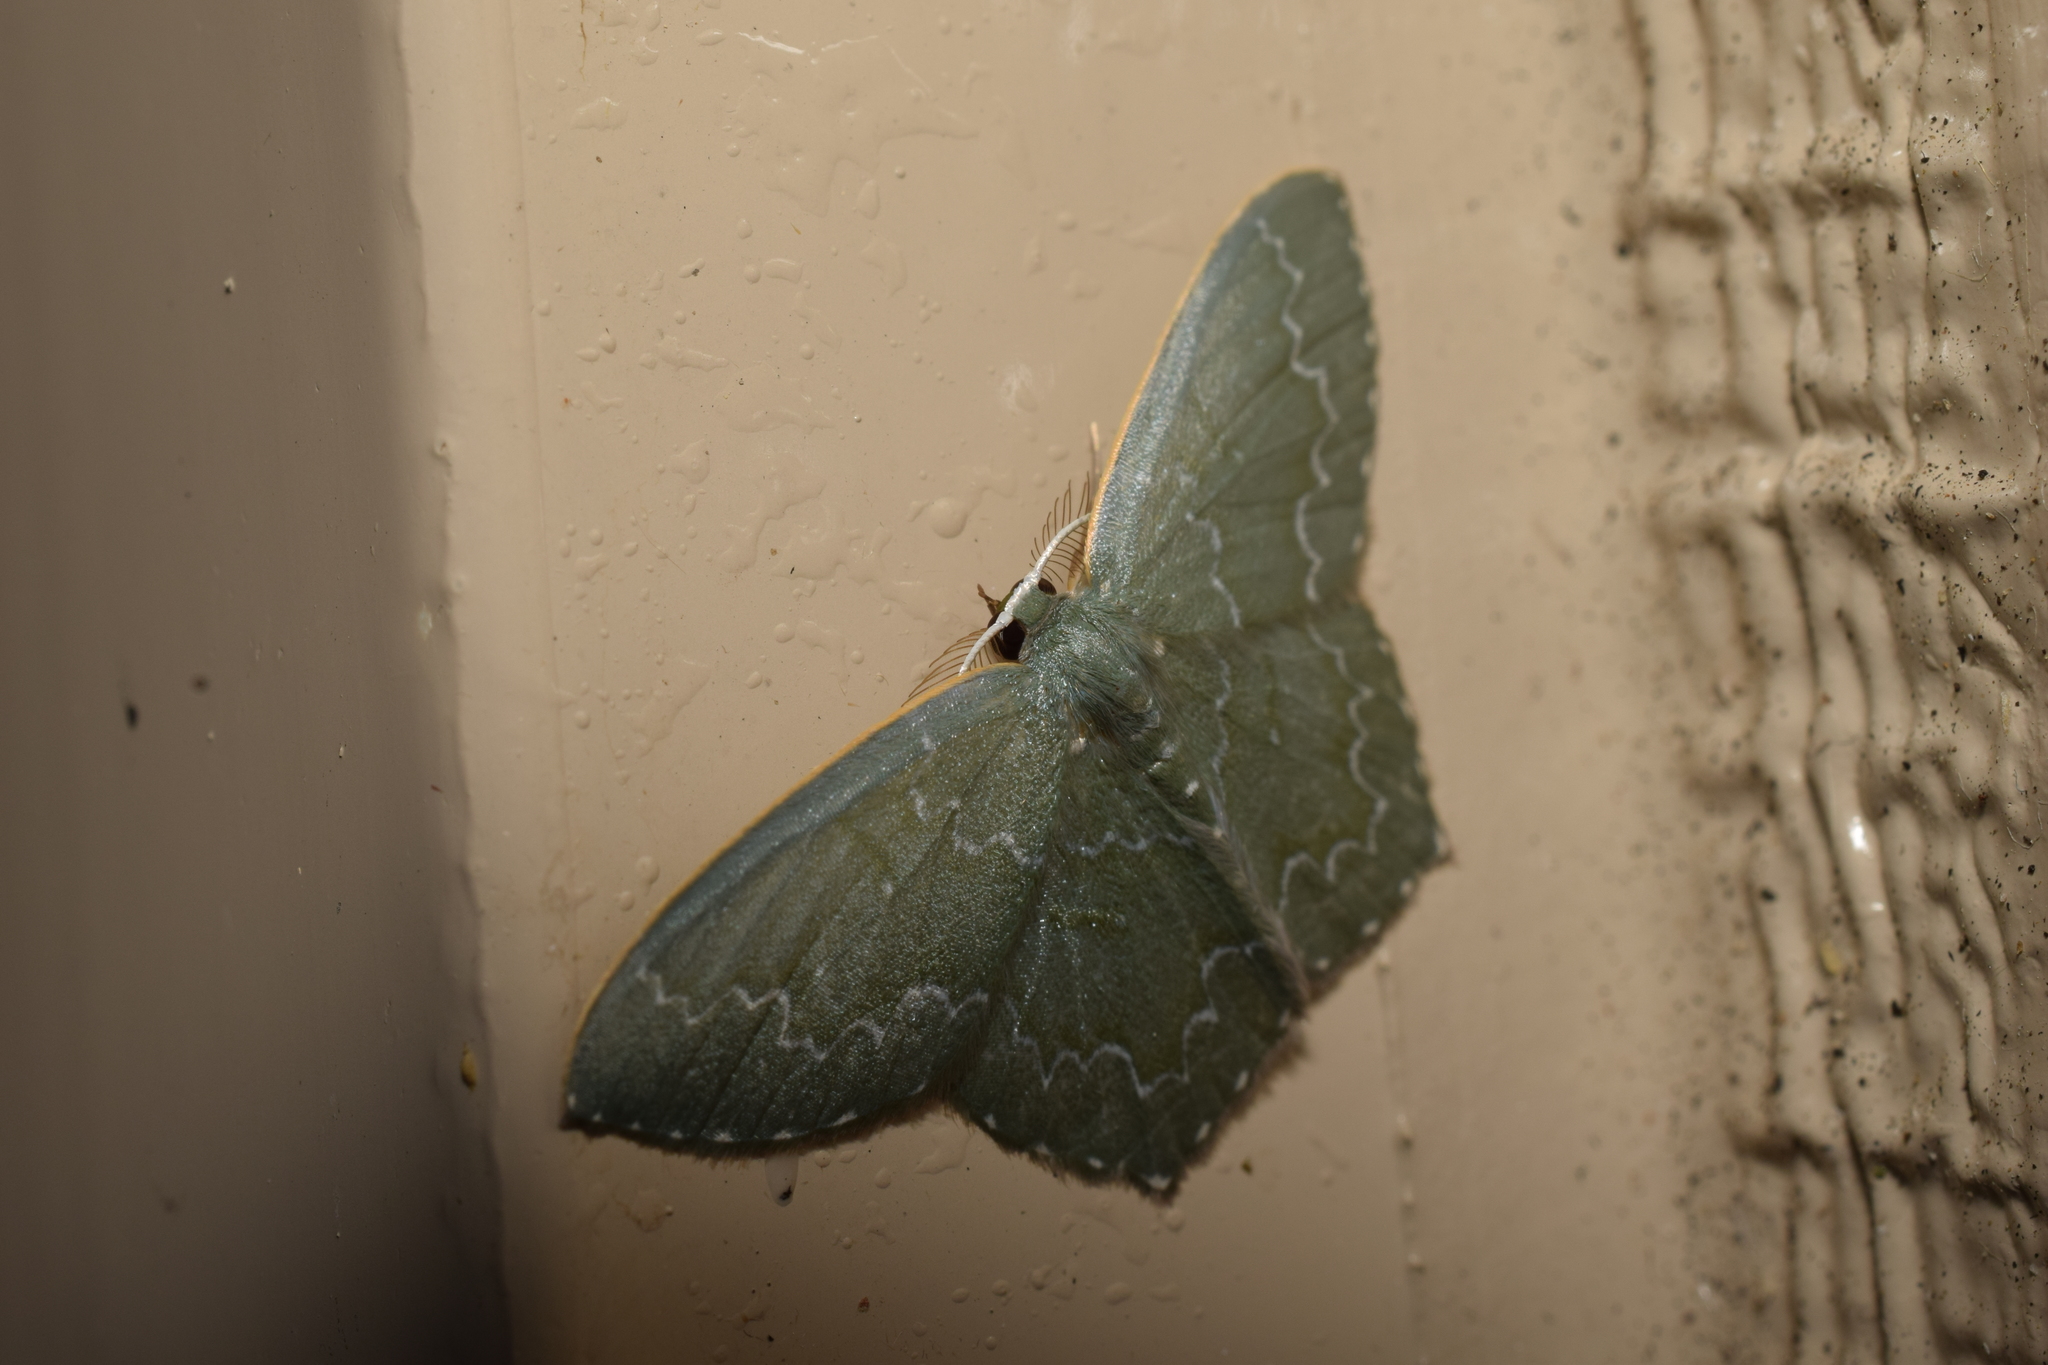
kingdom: Animalia
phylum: Arthropoda
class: Insecta
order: Lepidoptera
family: Geometridae
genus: Jodis
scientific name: Jodis urosticta
